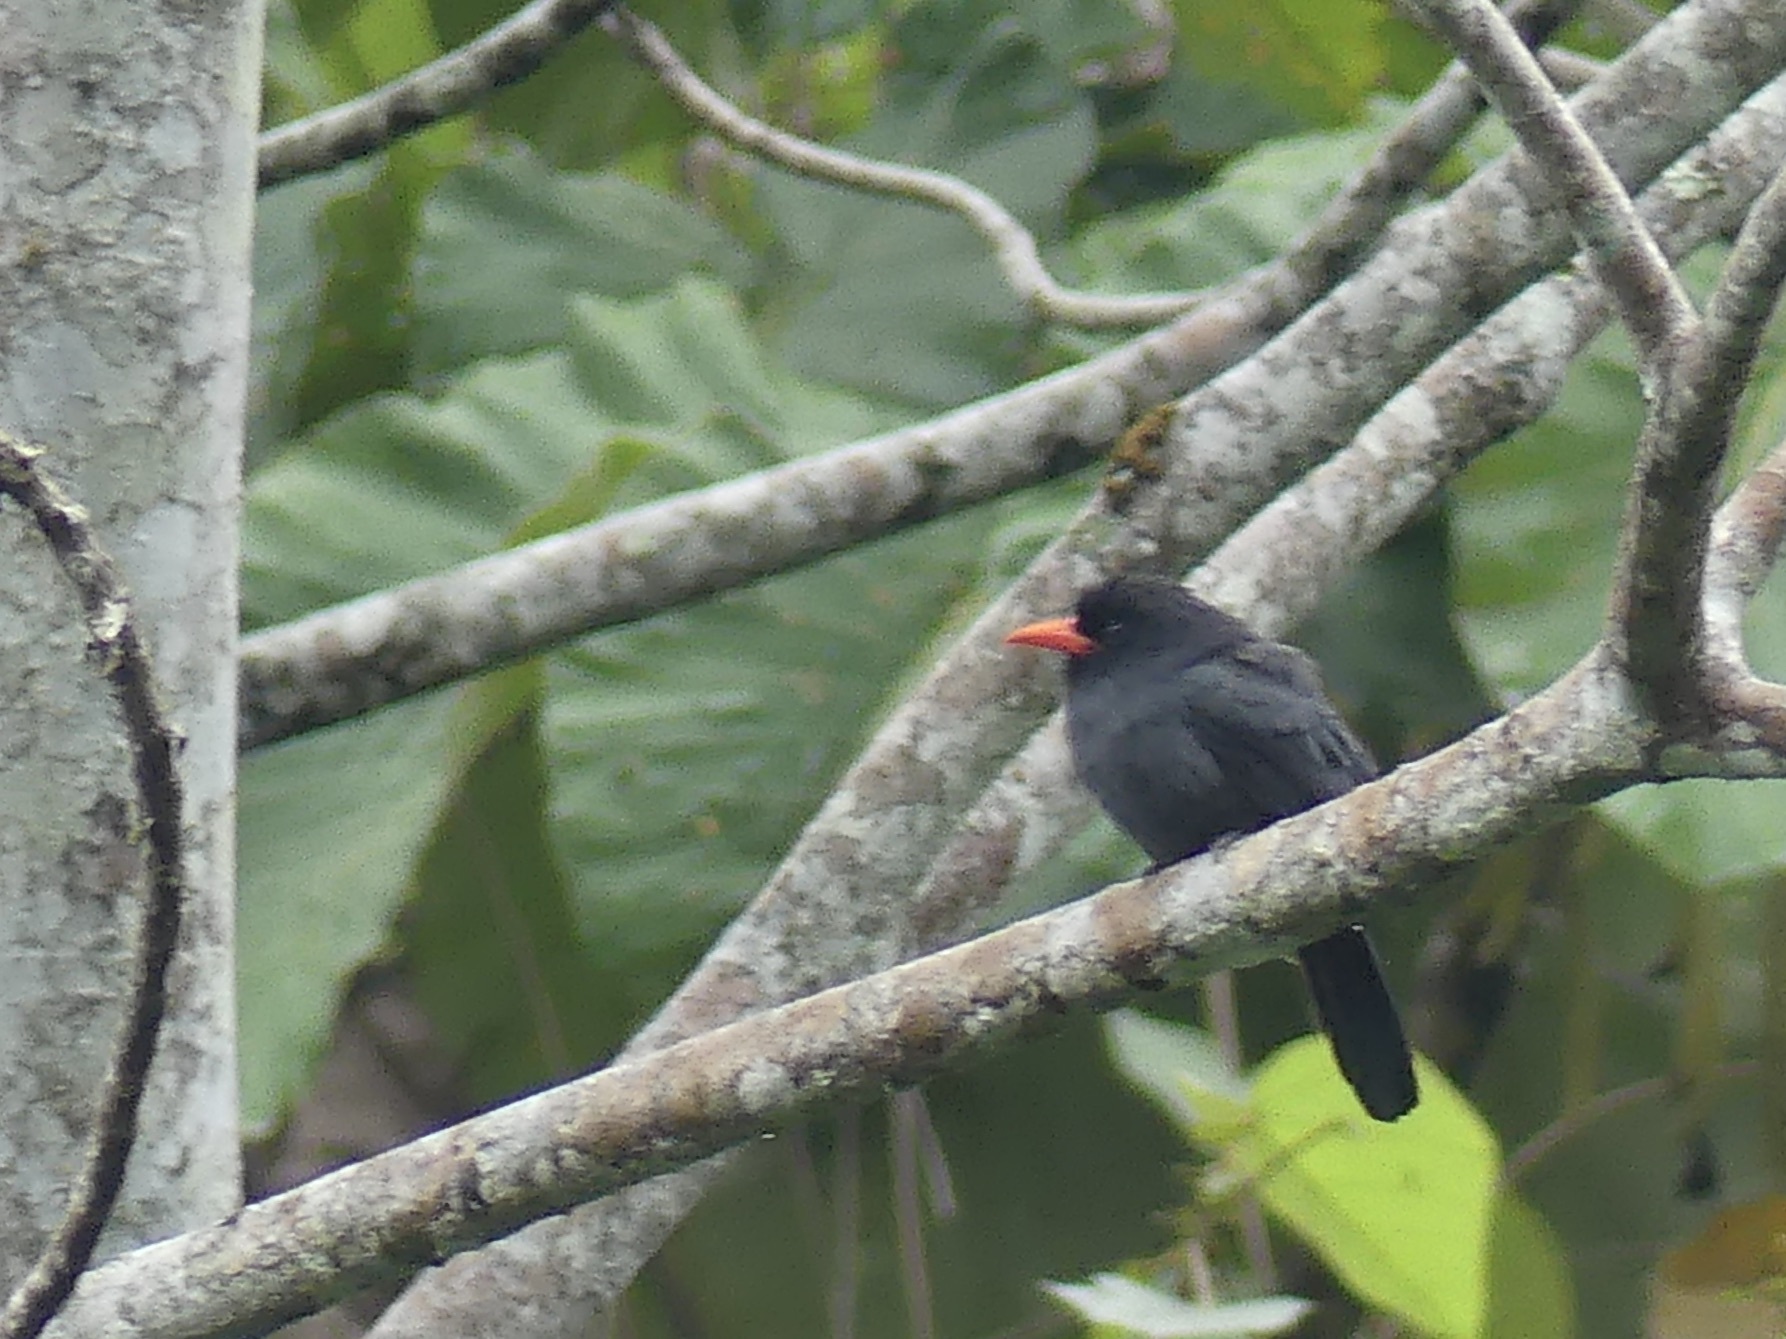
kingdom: Animalia
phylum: Chordata
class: Aves
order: Piciformes
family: Bucconidae
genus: Monasa
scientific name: Monasa nigrifrons
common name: Black-fronted nunbird
